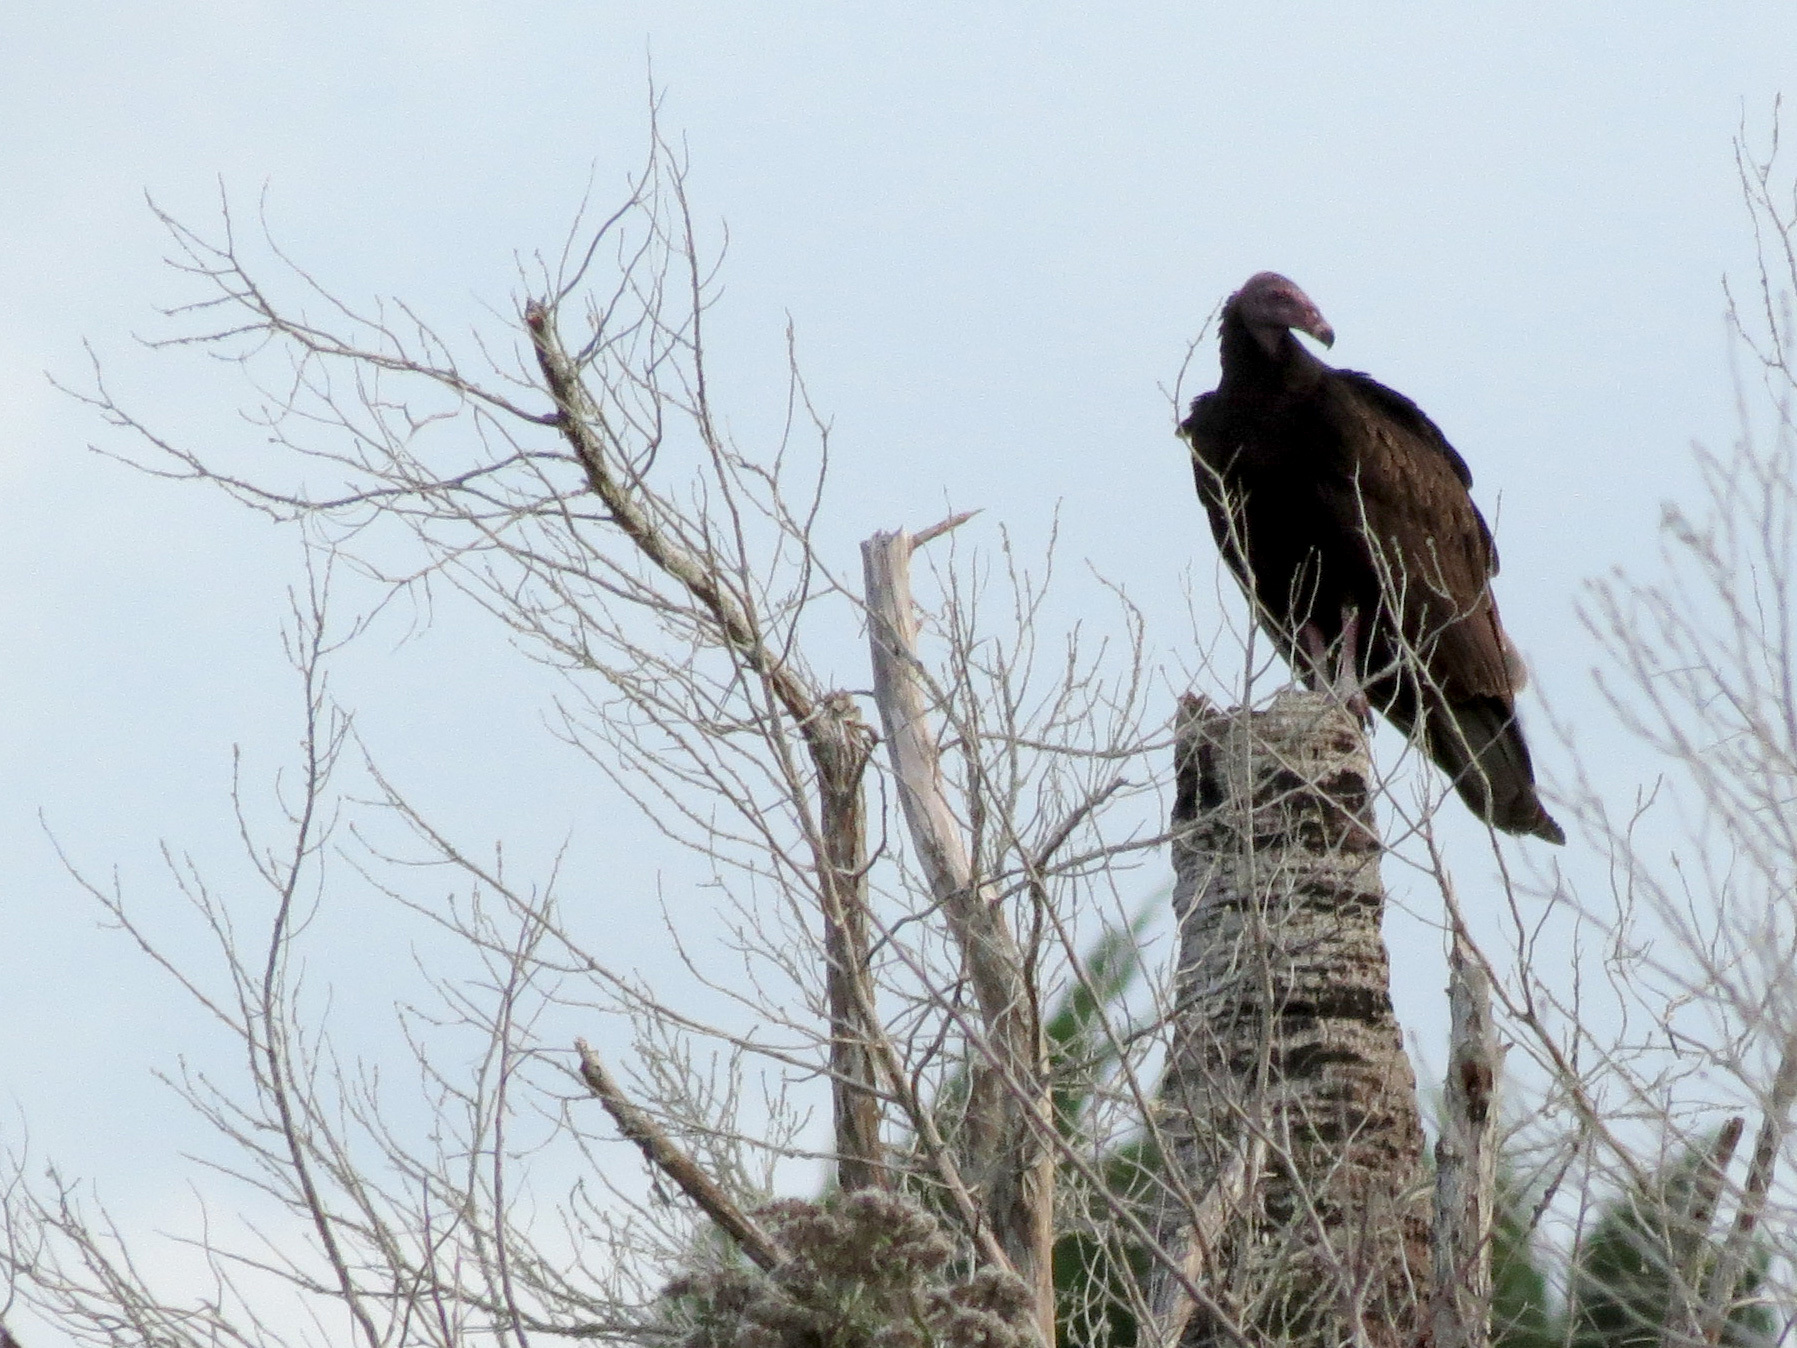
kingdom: Animalia
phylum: Chordata
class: Aves
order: Accipitriformes
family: Cathartidae
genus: Cathartes
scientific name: Cathartes aura
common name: Turkey vulture
